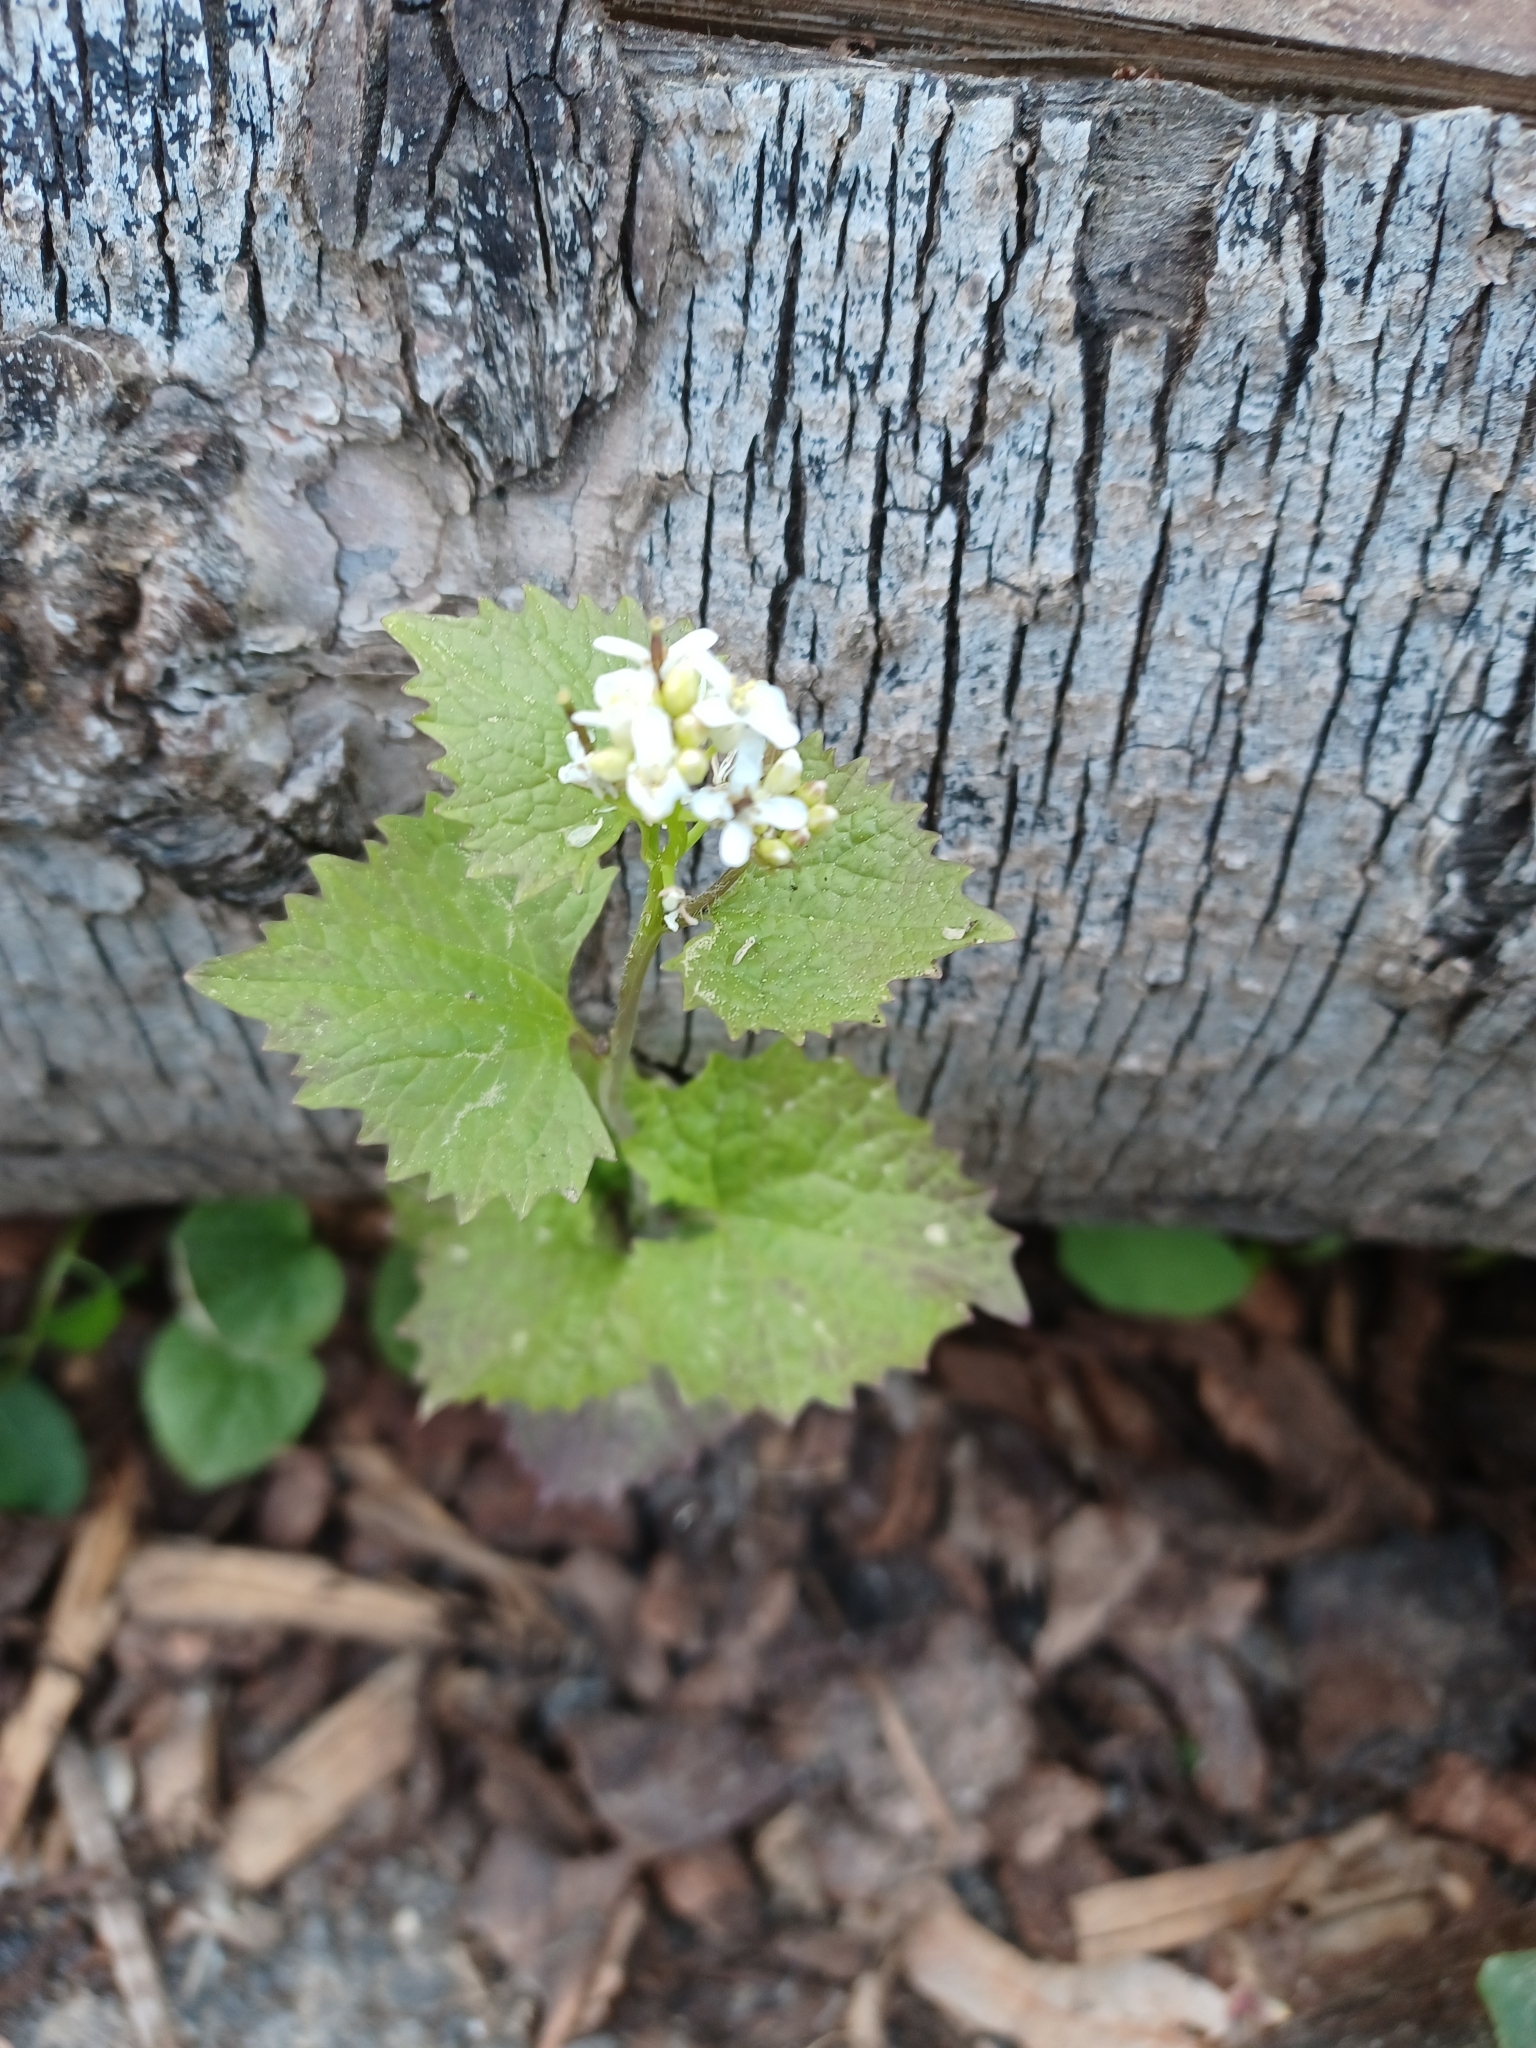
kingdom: Plantae
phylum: Tracheophyta
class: Magnoliopsida
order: Brassicales
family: Brassicaceae
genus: Alliaria
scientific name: Alliaria petiolata
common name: Garlic mustard
